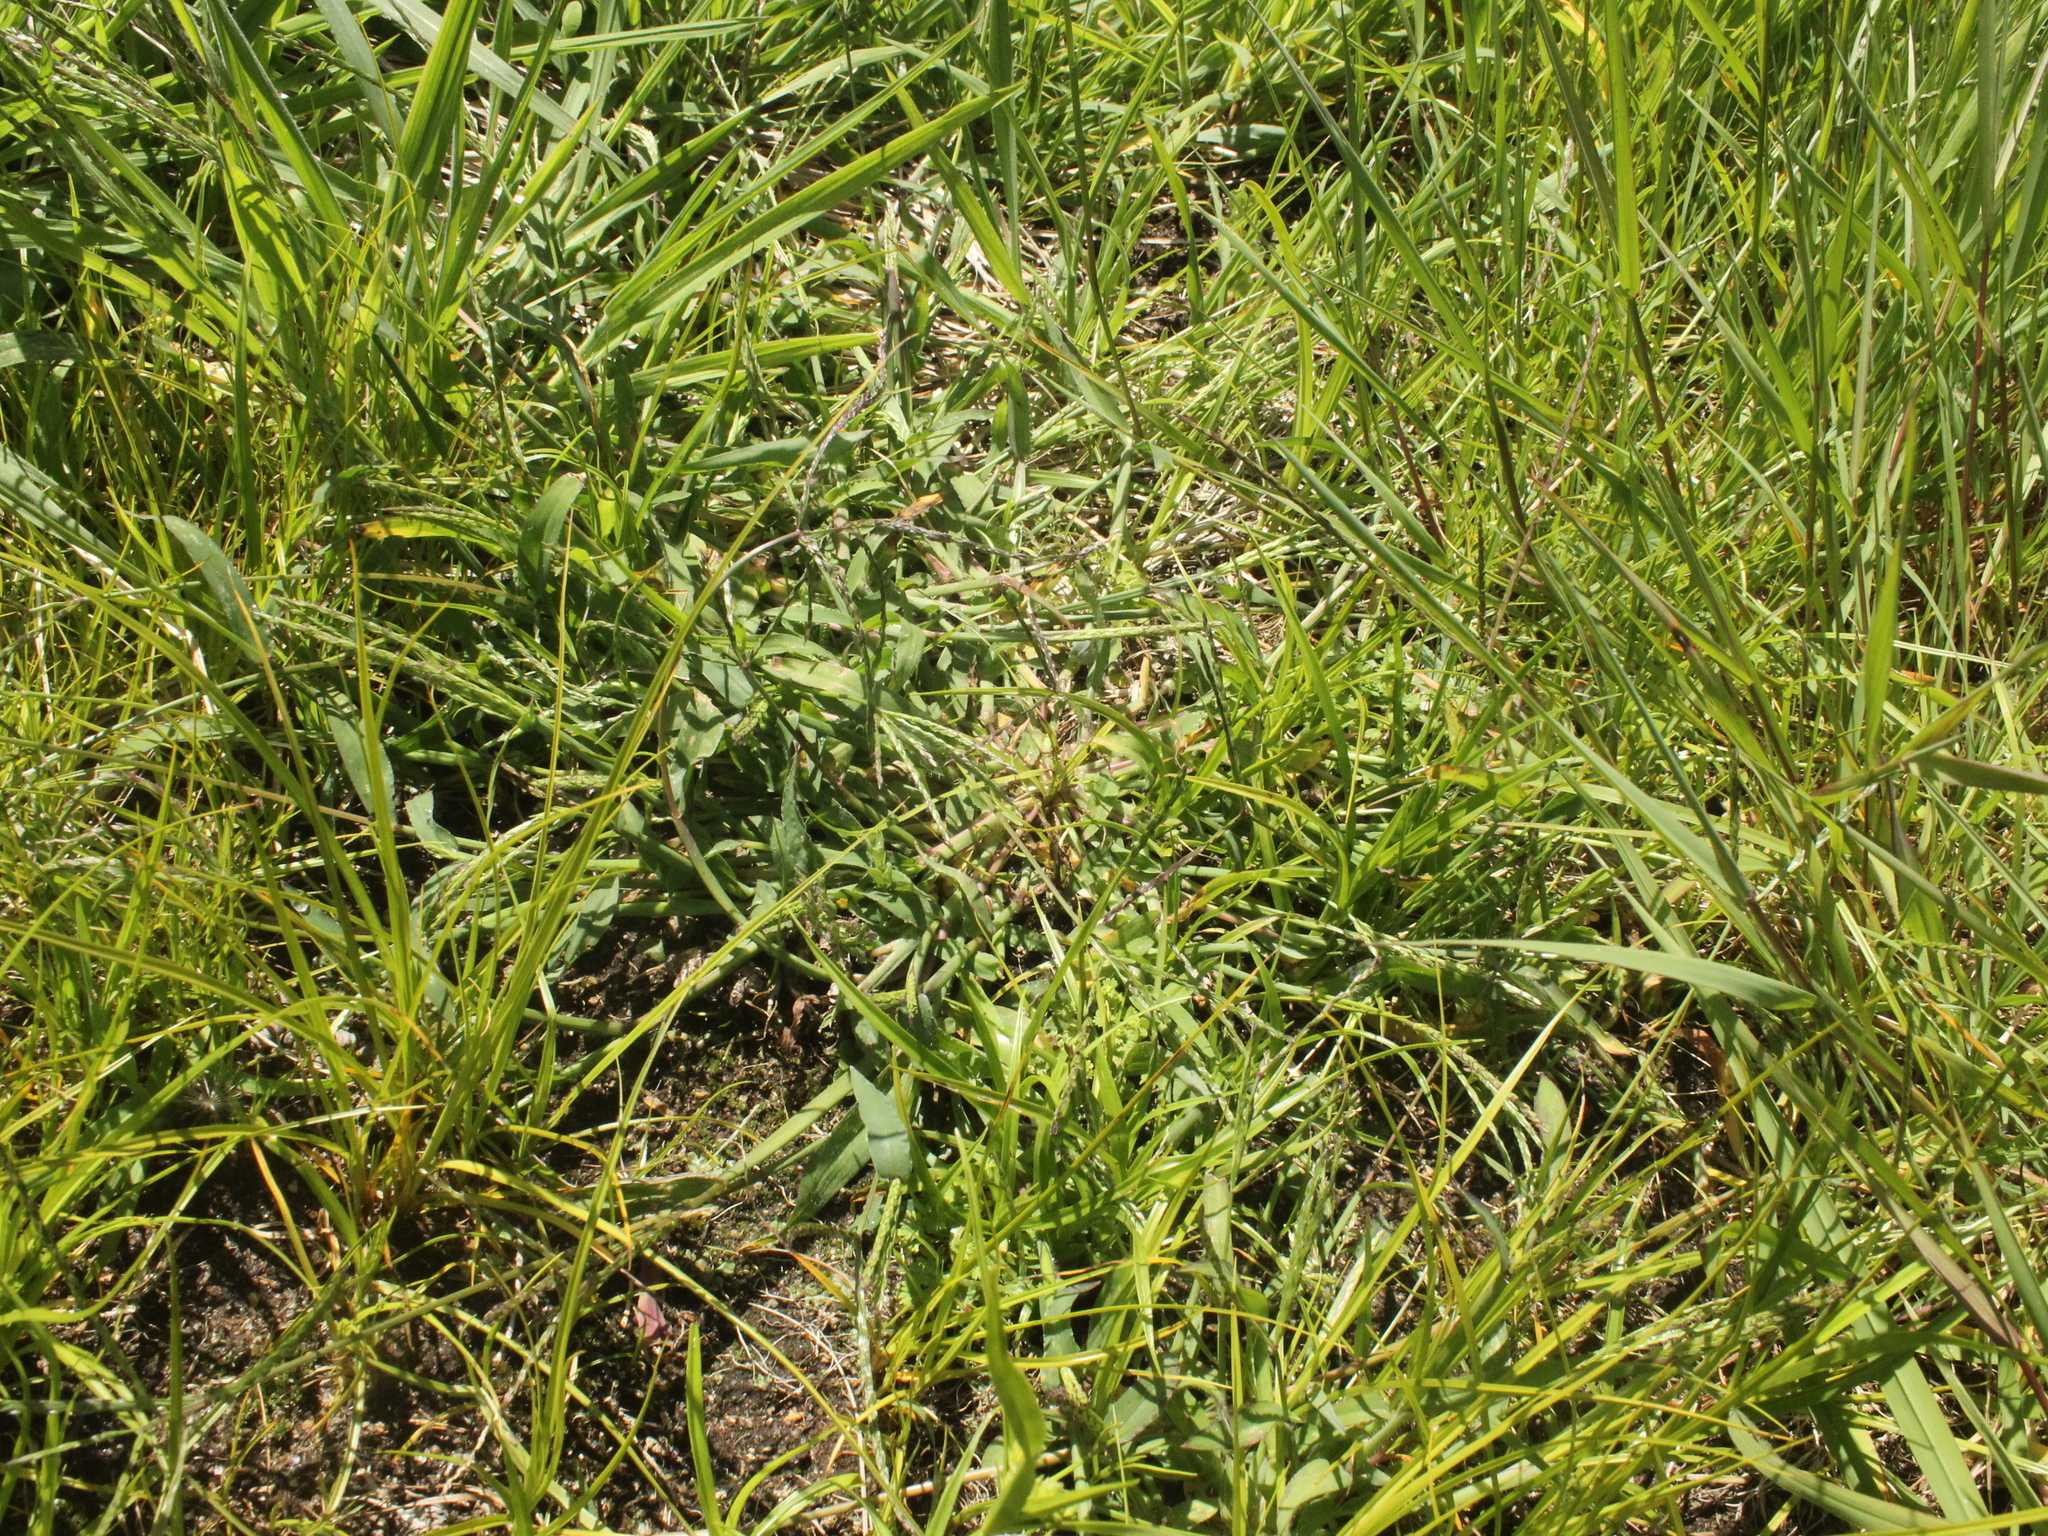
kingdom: Plantae
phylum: Tracheophyta
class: Liliopsida
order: Poales
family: Poaceae
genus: Cenchrus
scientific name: Cenchrus clandestinus
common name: Kikuyugrass
